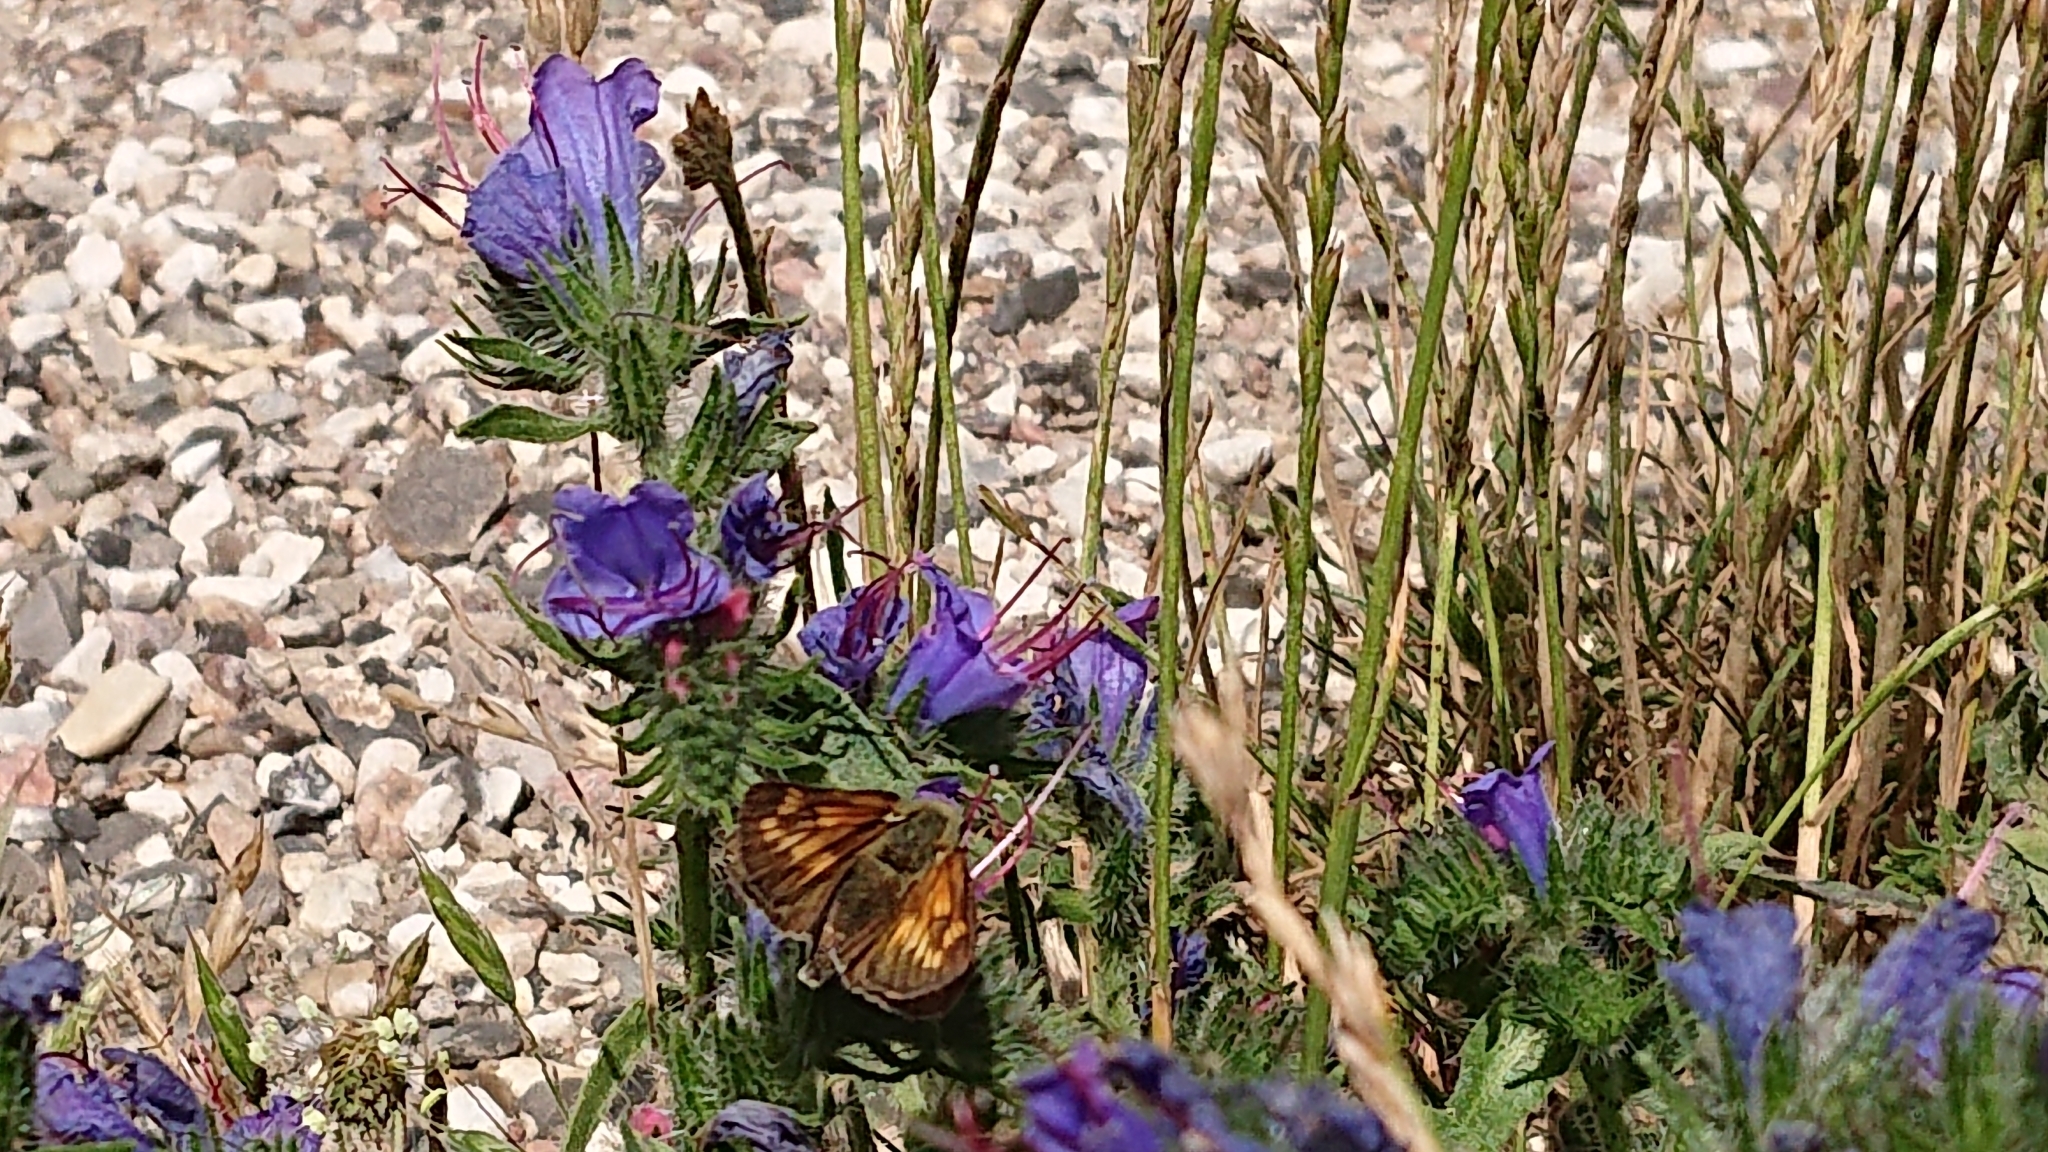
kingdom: Animalia
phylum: Arthropoda
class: Insecta
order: Lepidoptera
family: Hesperiidae
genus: Ochlodes
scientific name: Ochlodes venata
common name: Large skipper
